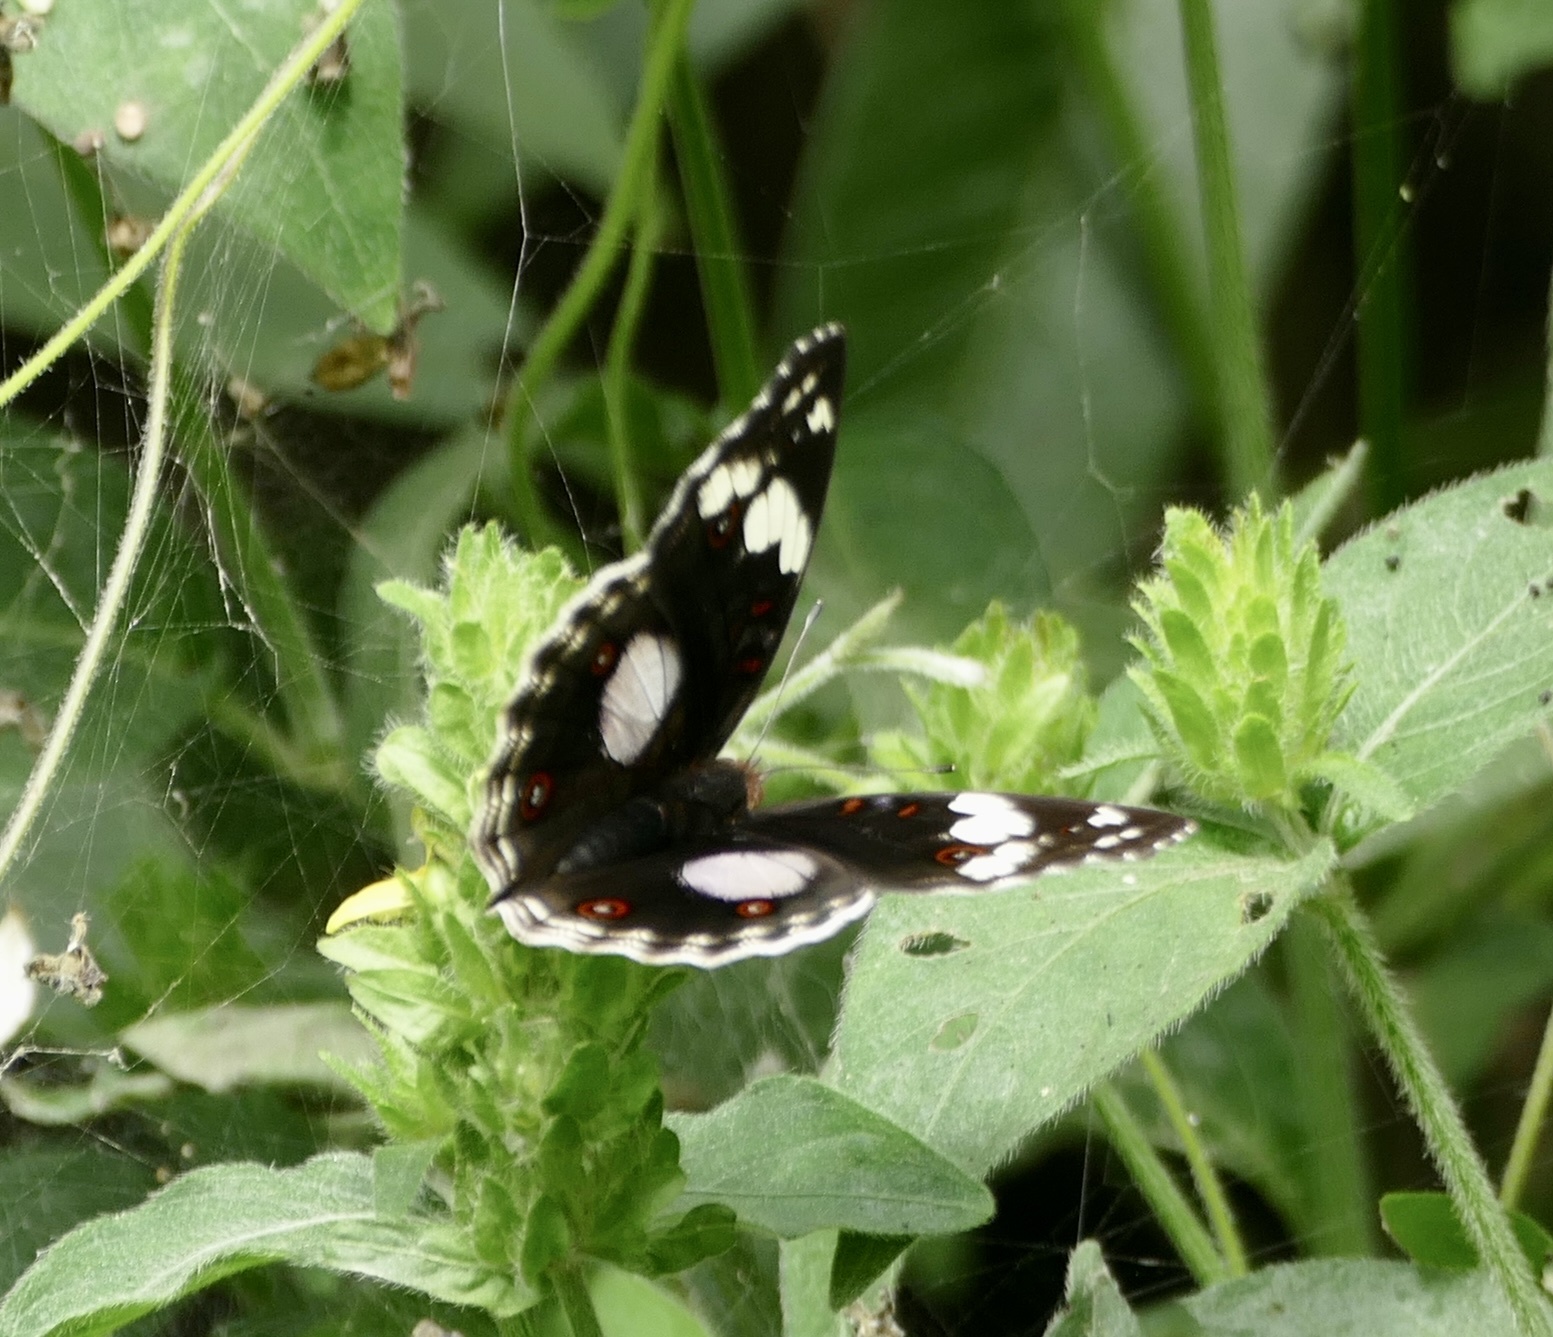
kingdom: Animalia
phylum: Arthropoda
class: Insecta
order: Lepidoptera
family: Nymphalidae
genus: Junonia
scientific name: Junonia oenone
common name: Dark blue pansy
